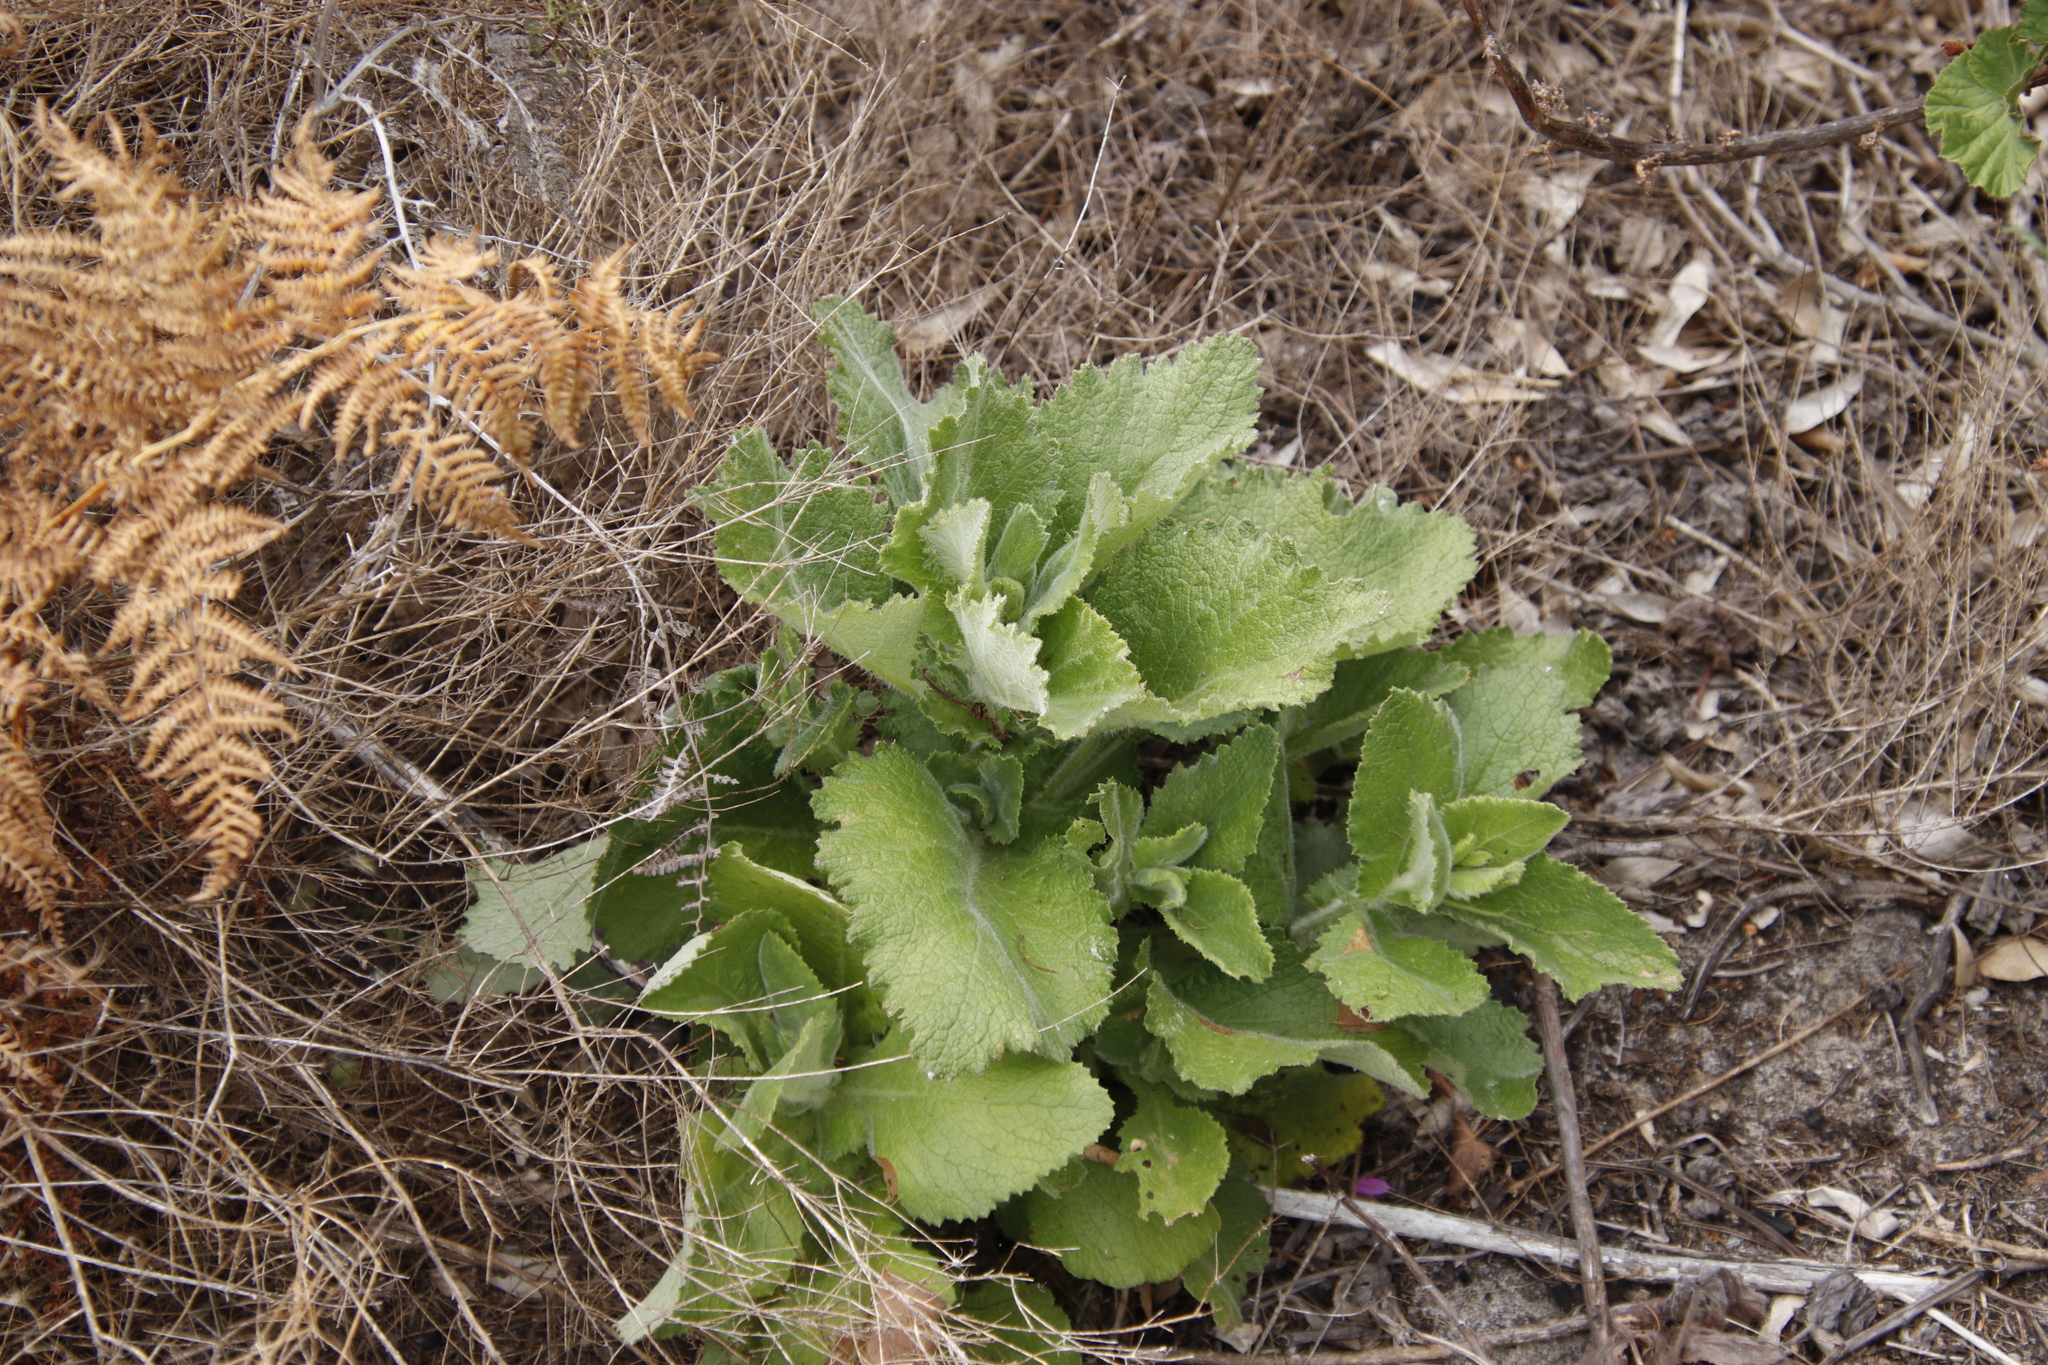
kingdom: Plantae
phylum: Tracheophyta
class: Magnoliopsida
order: Asterales
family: Asteraceae
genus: Senecio
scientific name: Senecio rigidus
